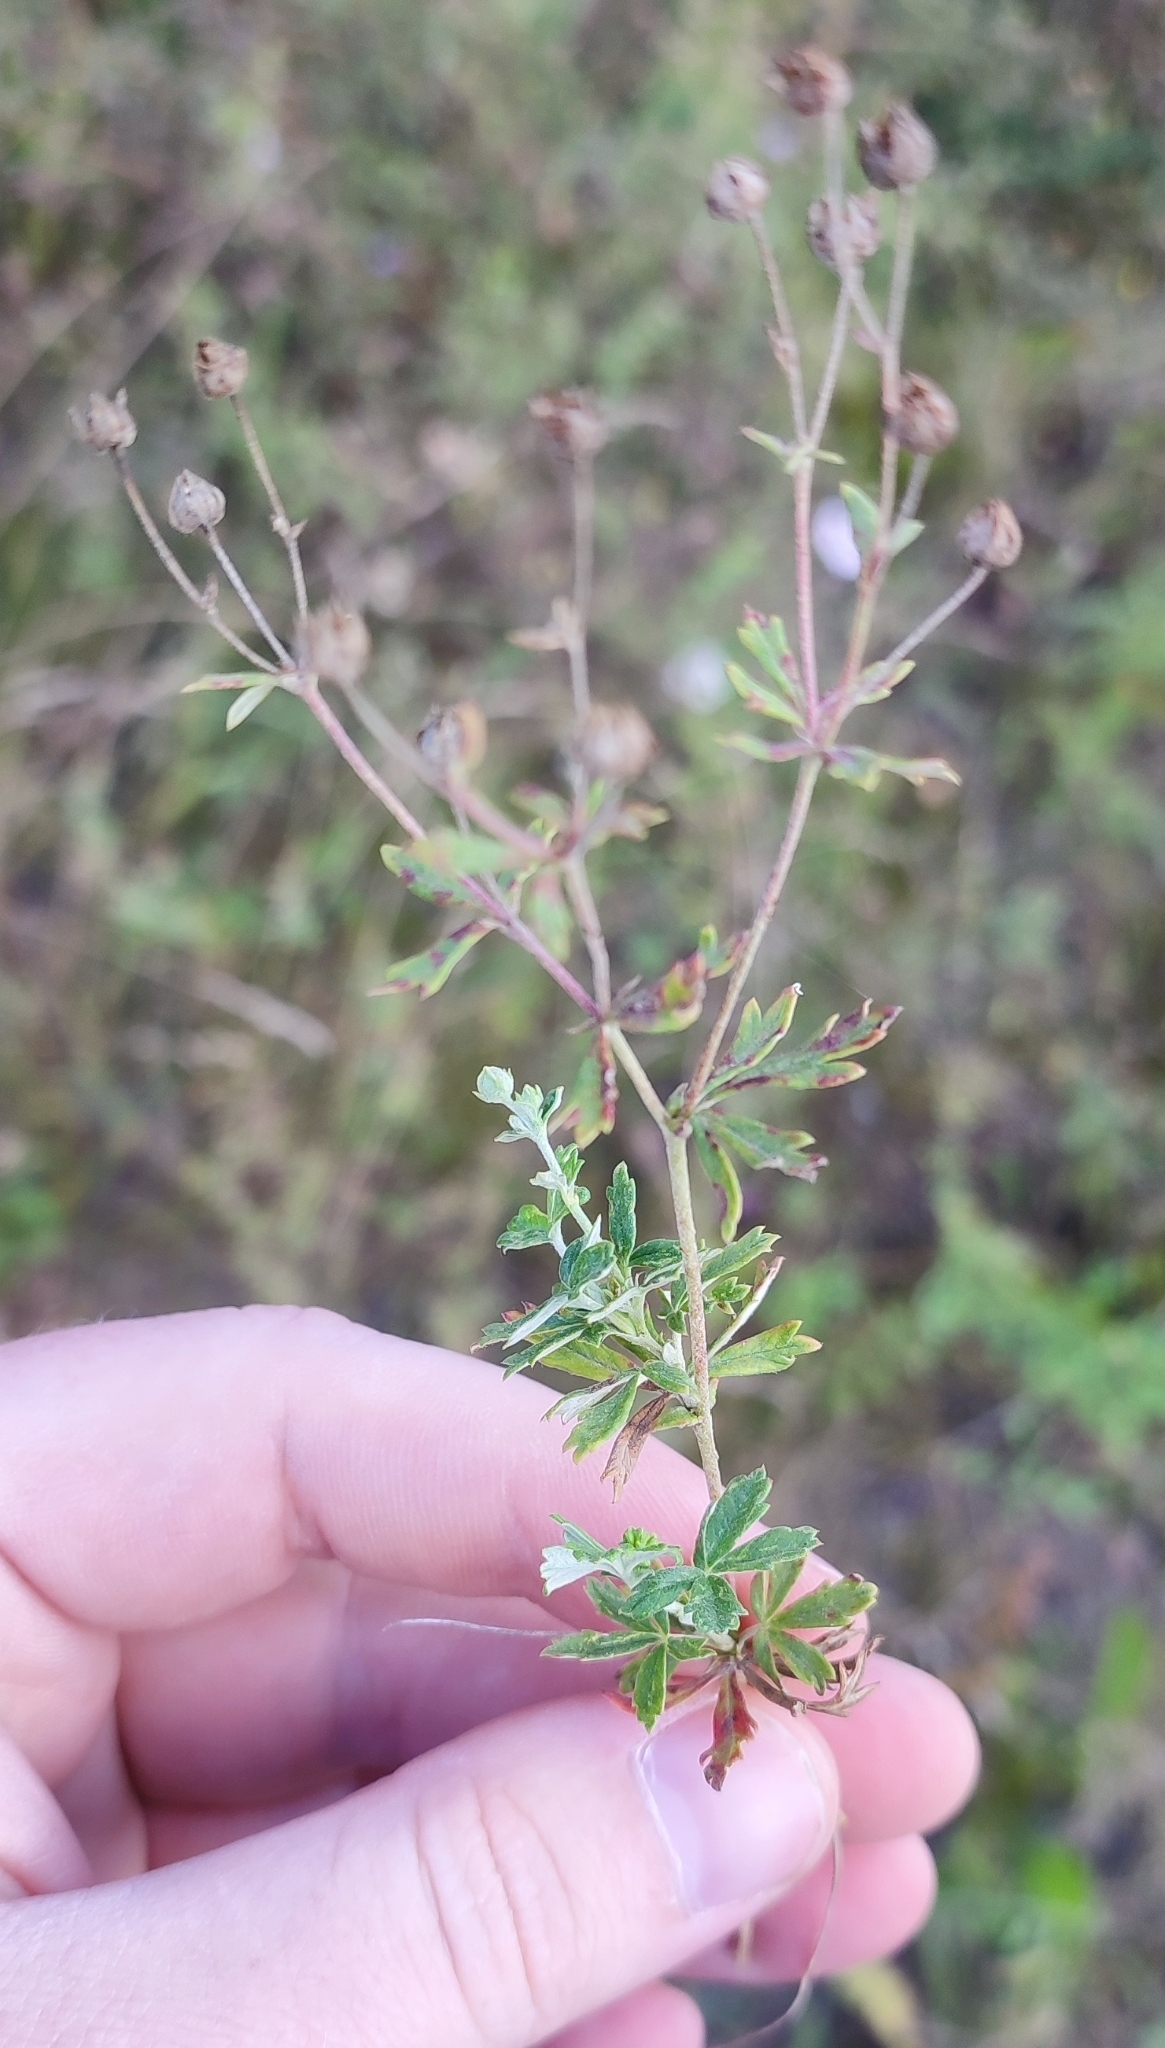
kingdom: Plantae
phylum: Tracheophyta
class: Magnoliopsida
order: Rosales
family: Rosaceae
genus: Potentilla
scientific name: Potentilla argentea
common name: Hoary cinquefoil
